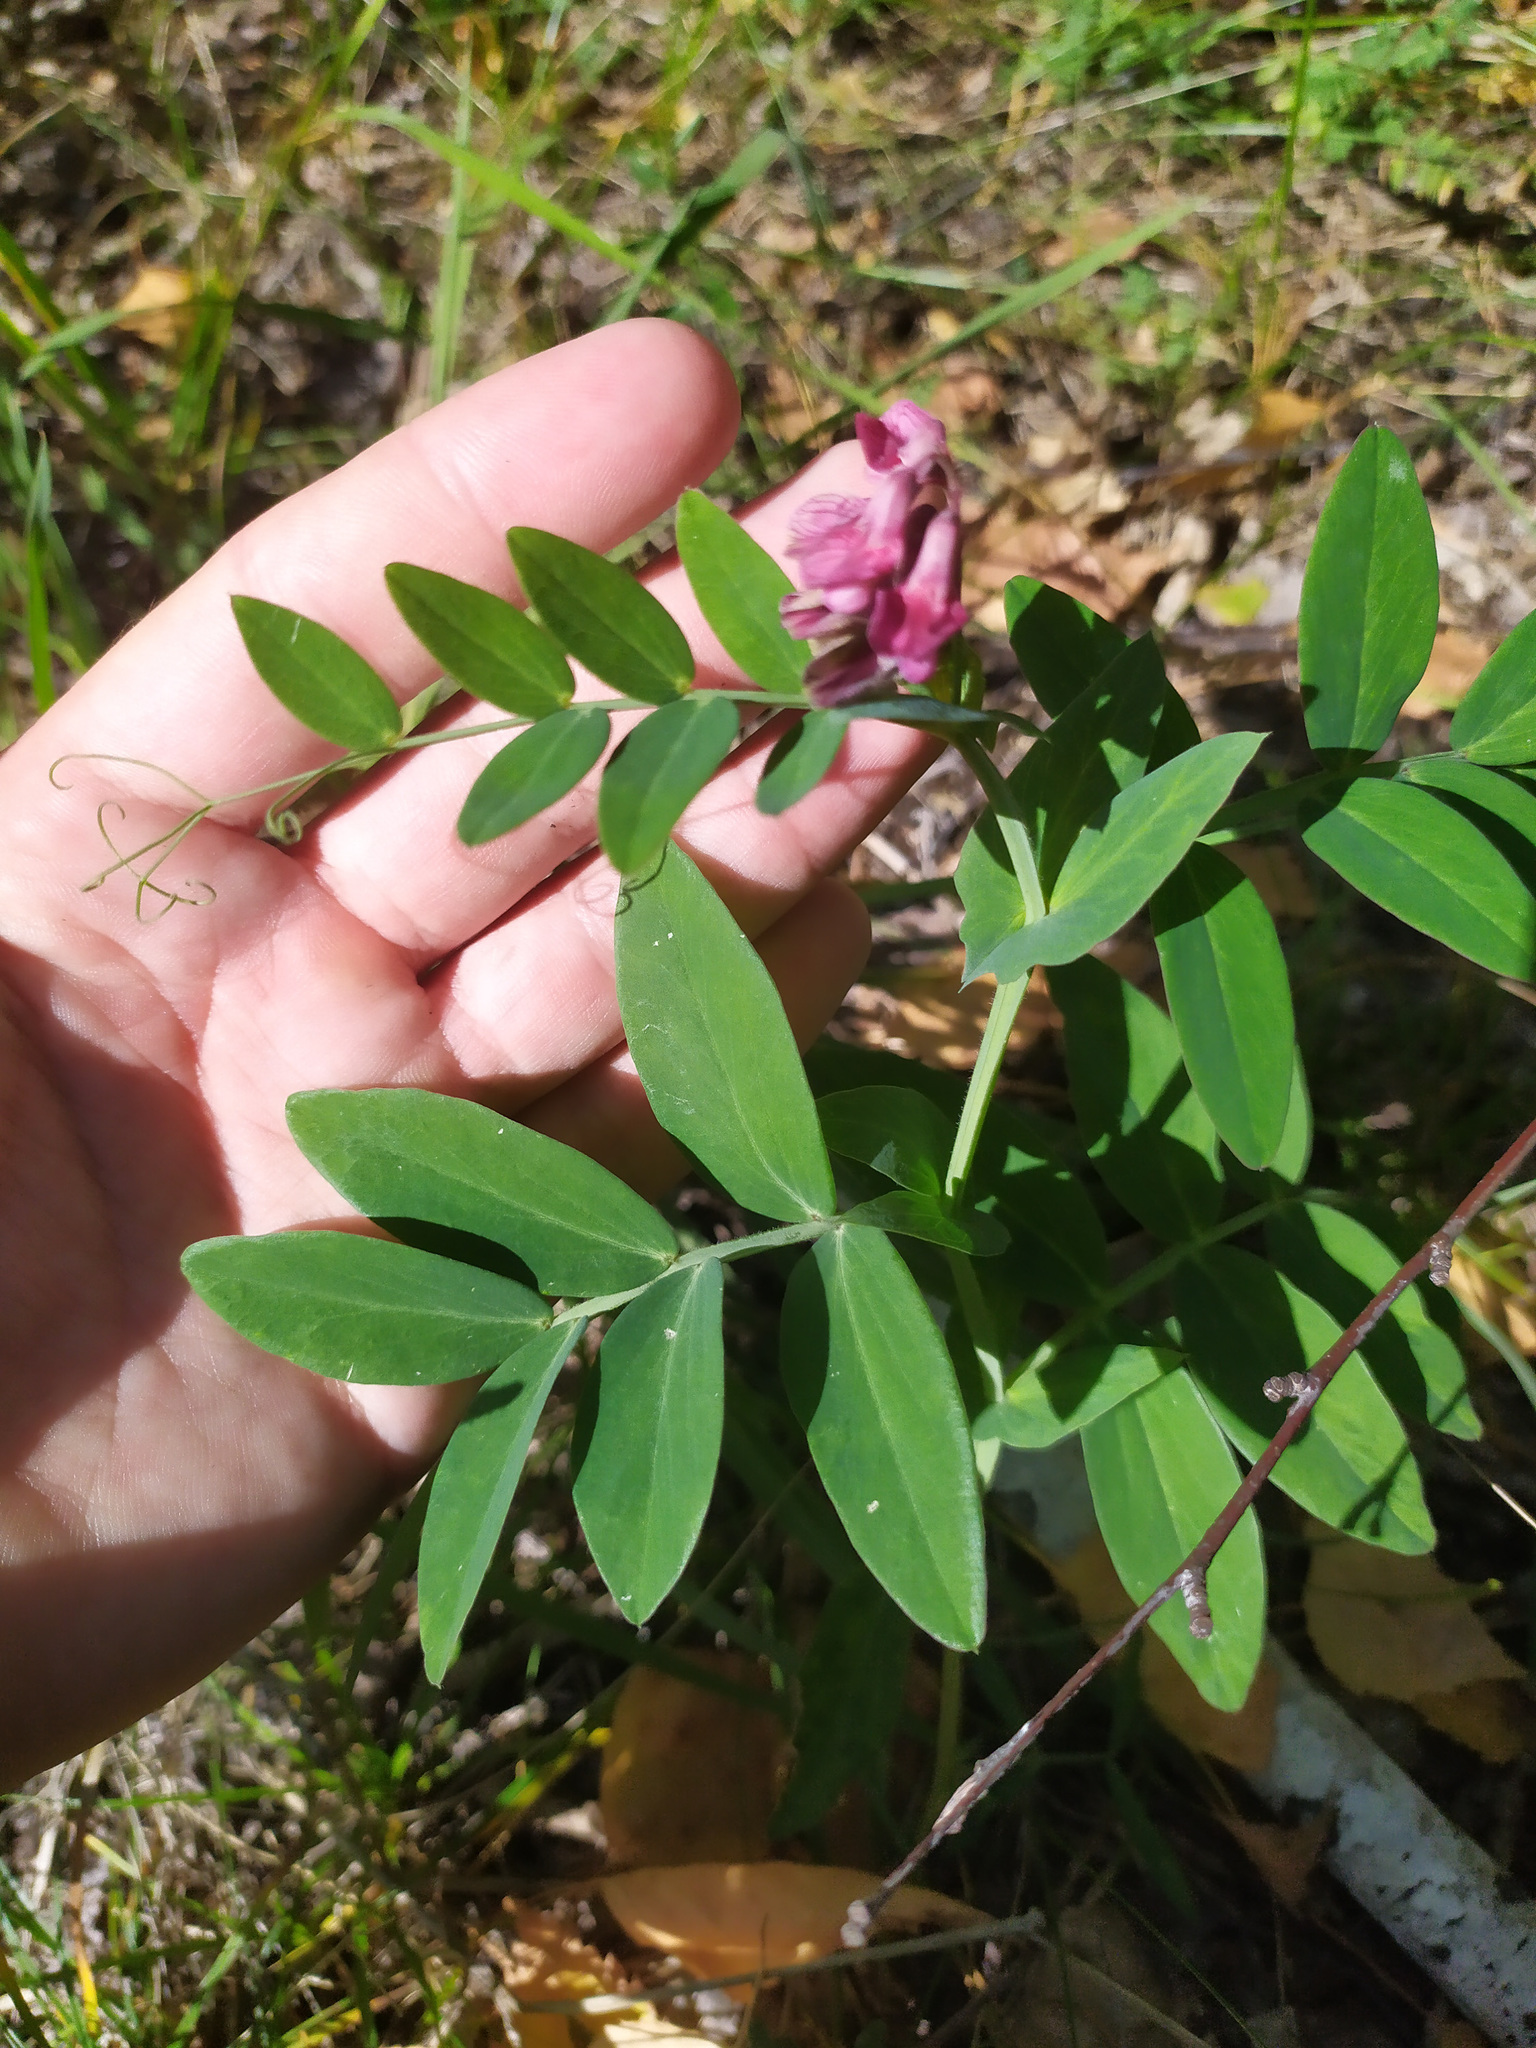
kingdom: Plantae
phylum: Tracheophyta
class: Magnoliopsida
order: Fabales
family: Fabaceae
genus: Lathyrus
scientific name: Lathyrus pisiformis
